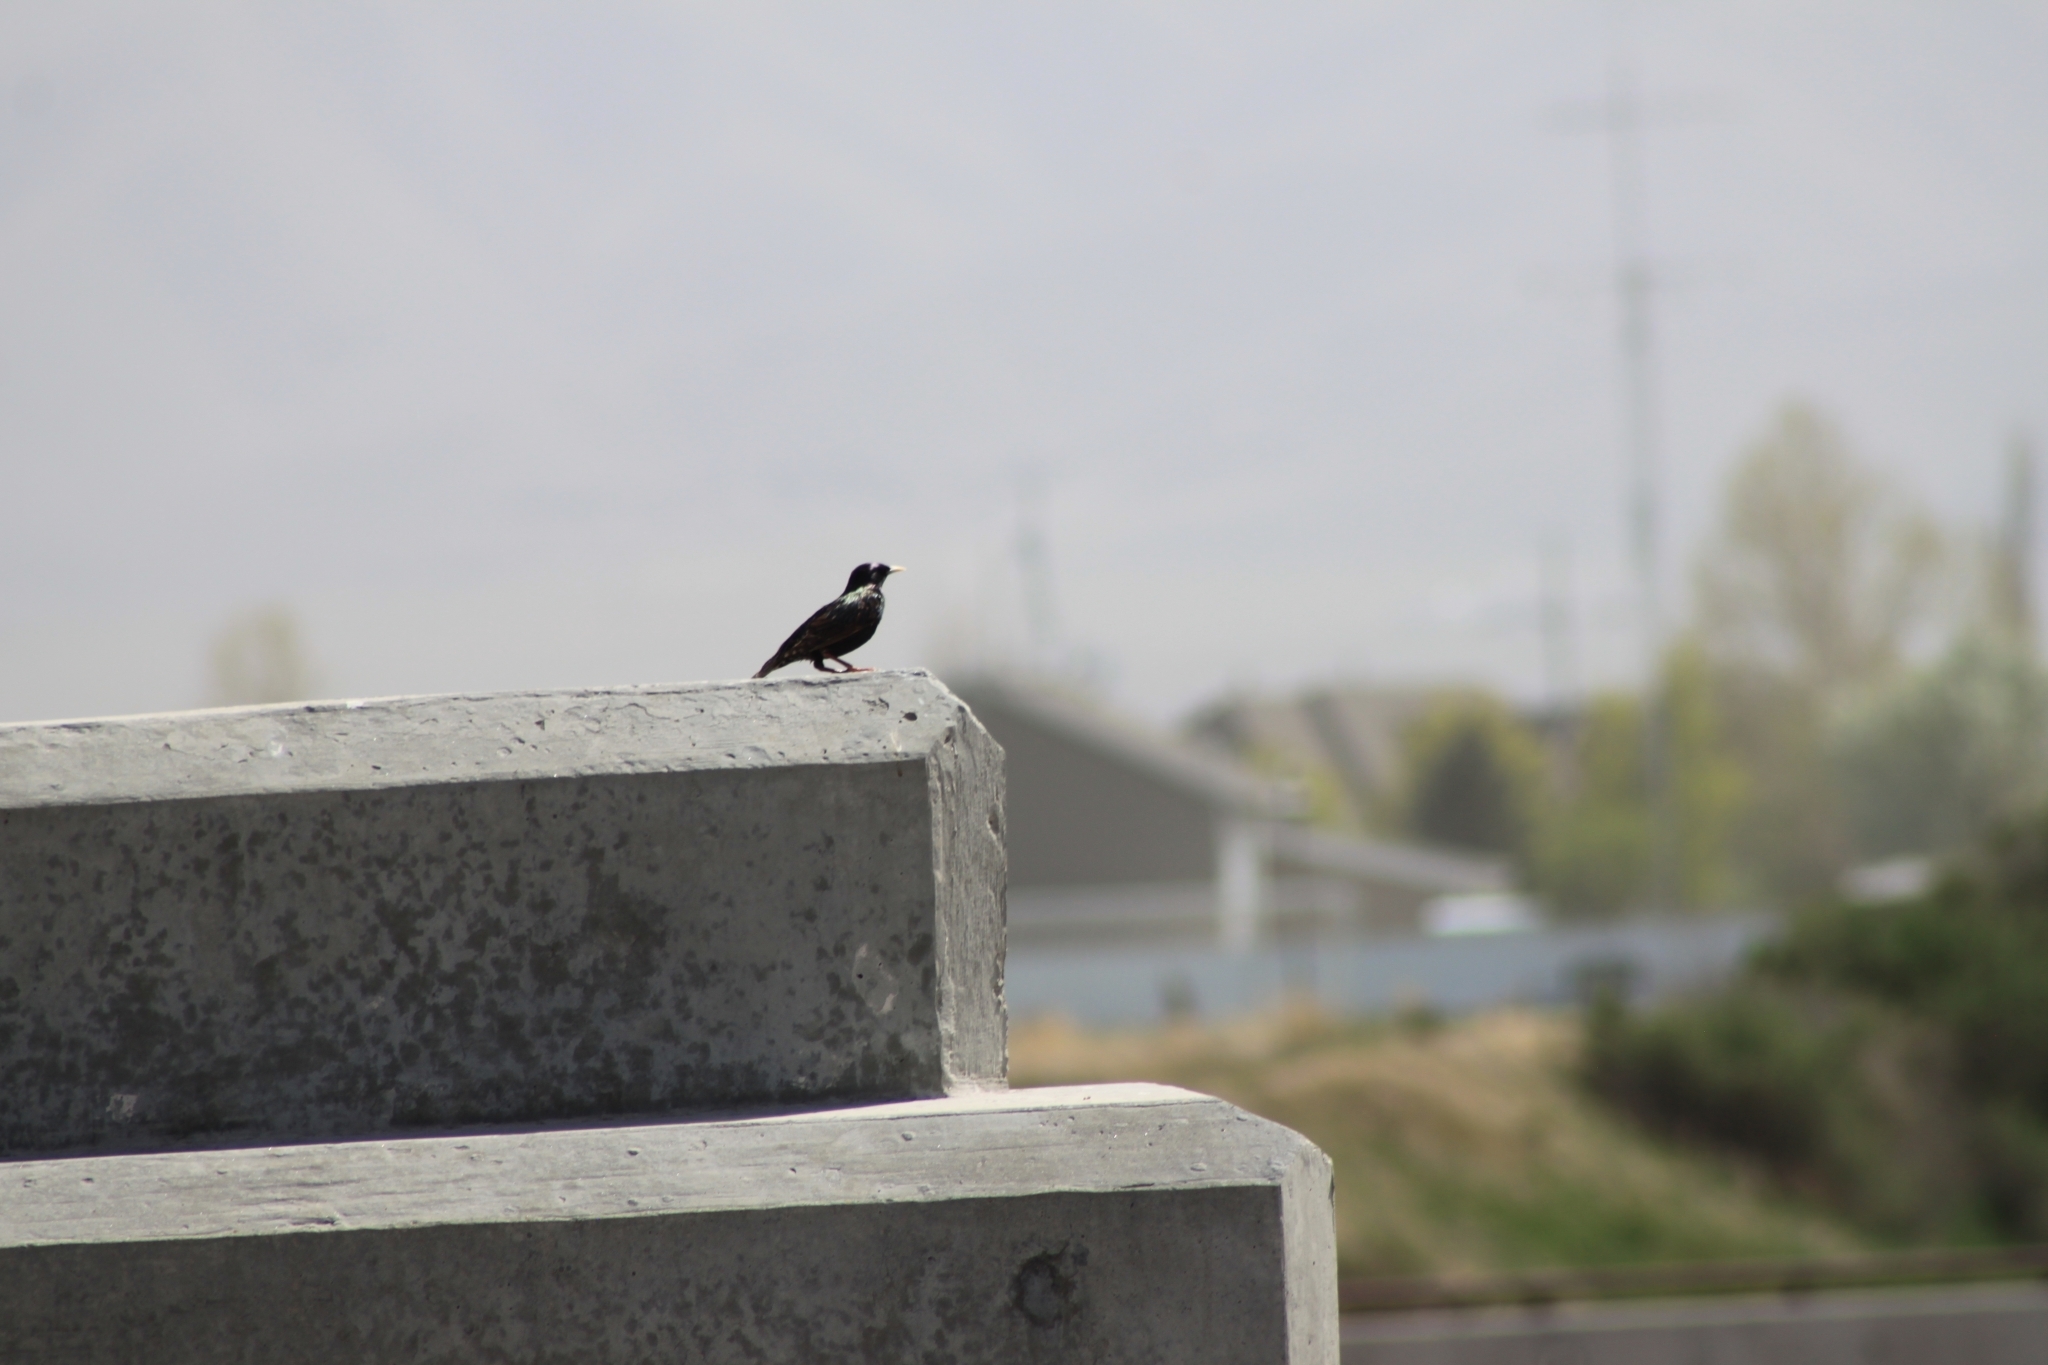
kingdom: Animalia
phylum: Chordata
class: Aves
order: Passeriformes
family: Sturnidae
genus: Sturnus
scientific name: Sturnus vulgaris
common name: Common starling
